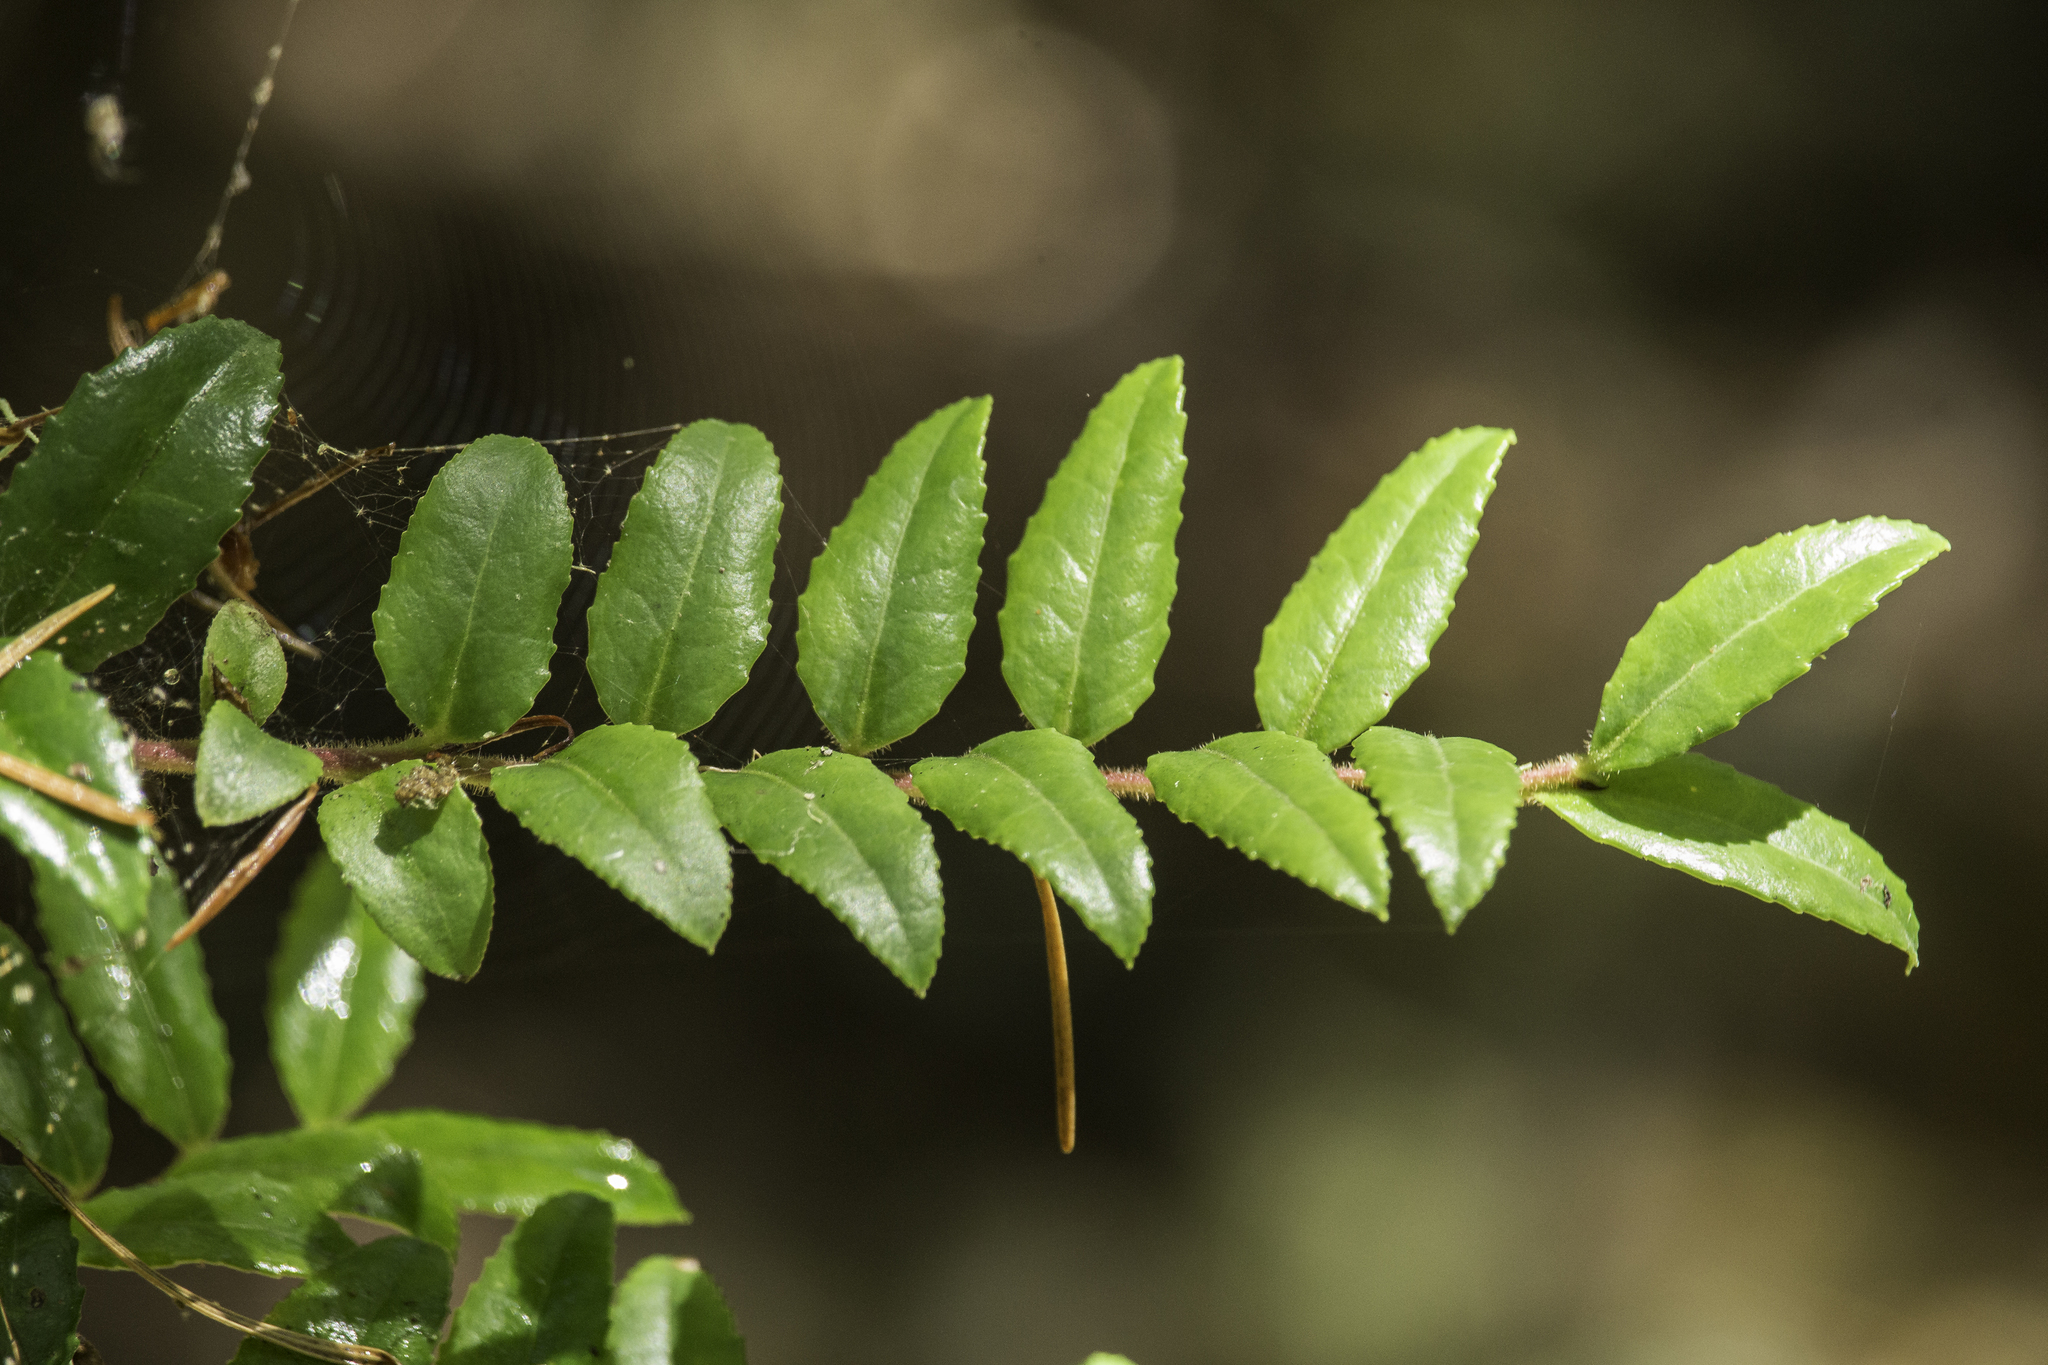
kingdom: Plantae
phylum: Tracheophyta
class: Magnoliopsida
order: Ericales
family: Ericaceae
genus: Vaccinium
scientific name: Vaccinium ovatum
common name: California-huckleberry
